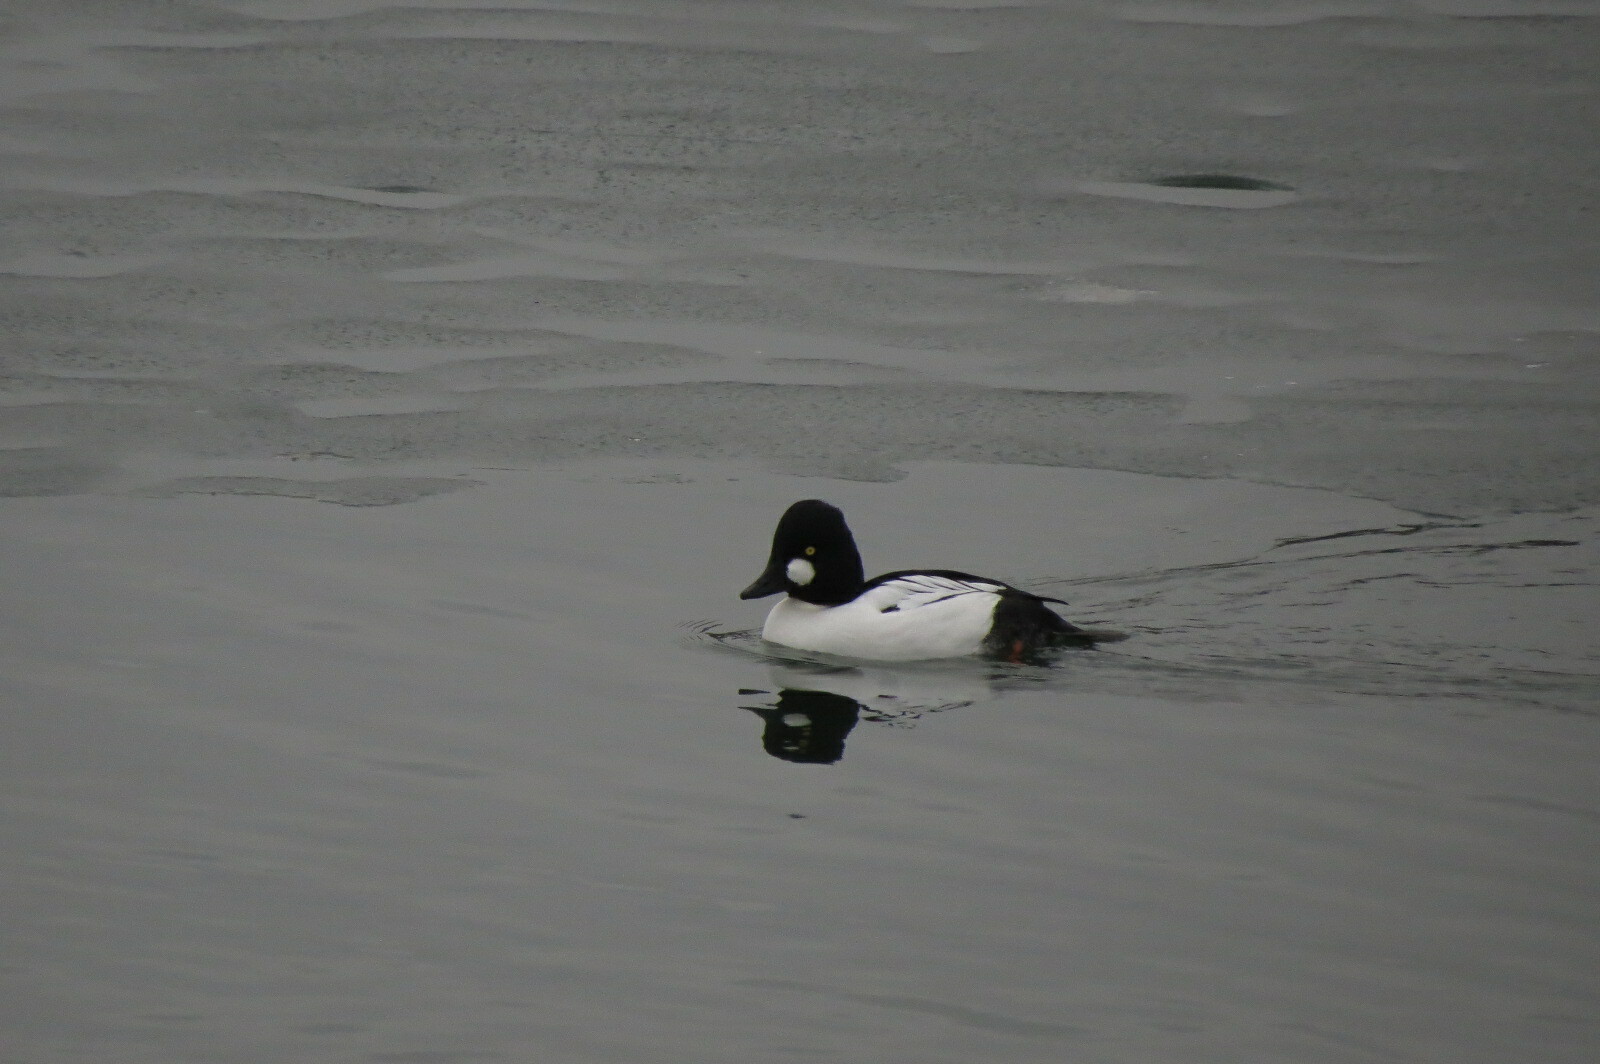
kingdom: Animalia
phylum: Chordata
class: Aves
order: Anseriformes
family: Anatidae
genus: Bucephala
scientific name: Bucephala clangula
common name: Common goldeneye
